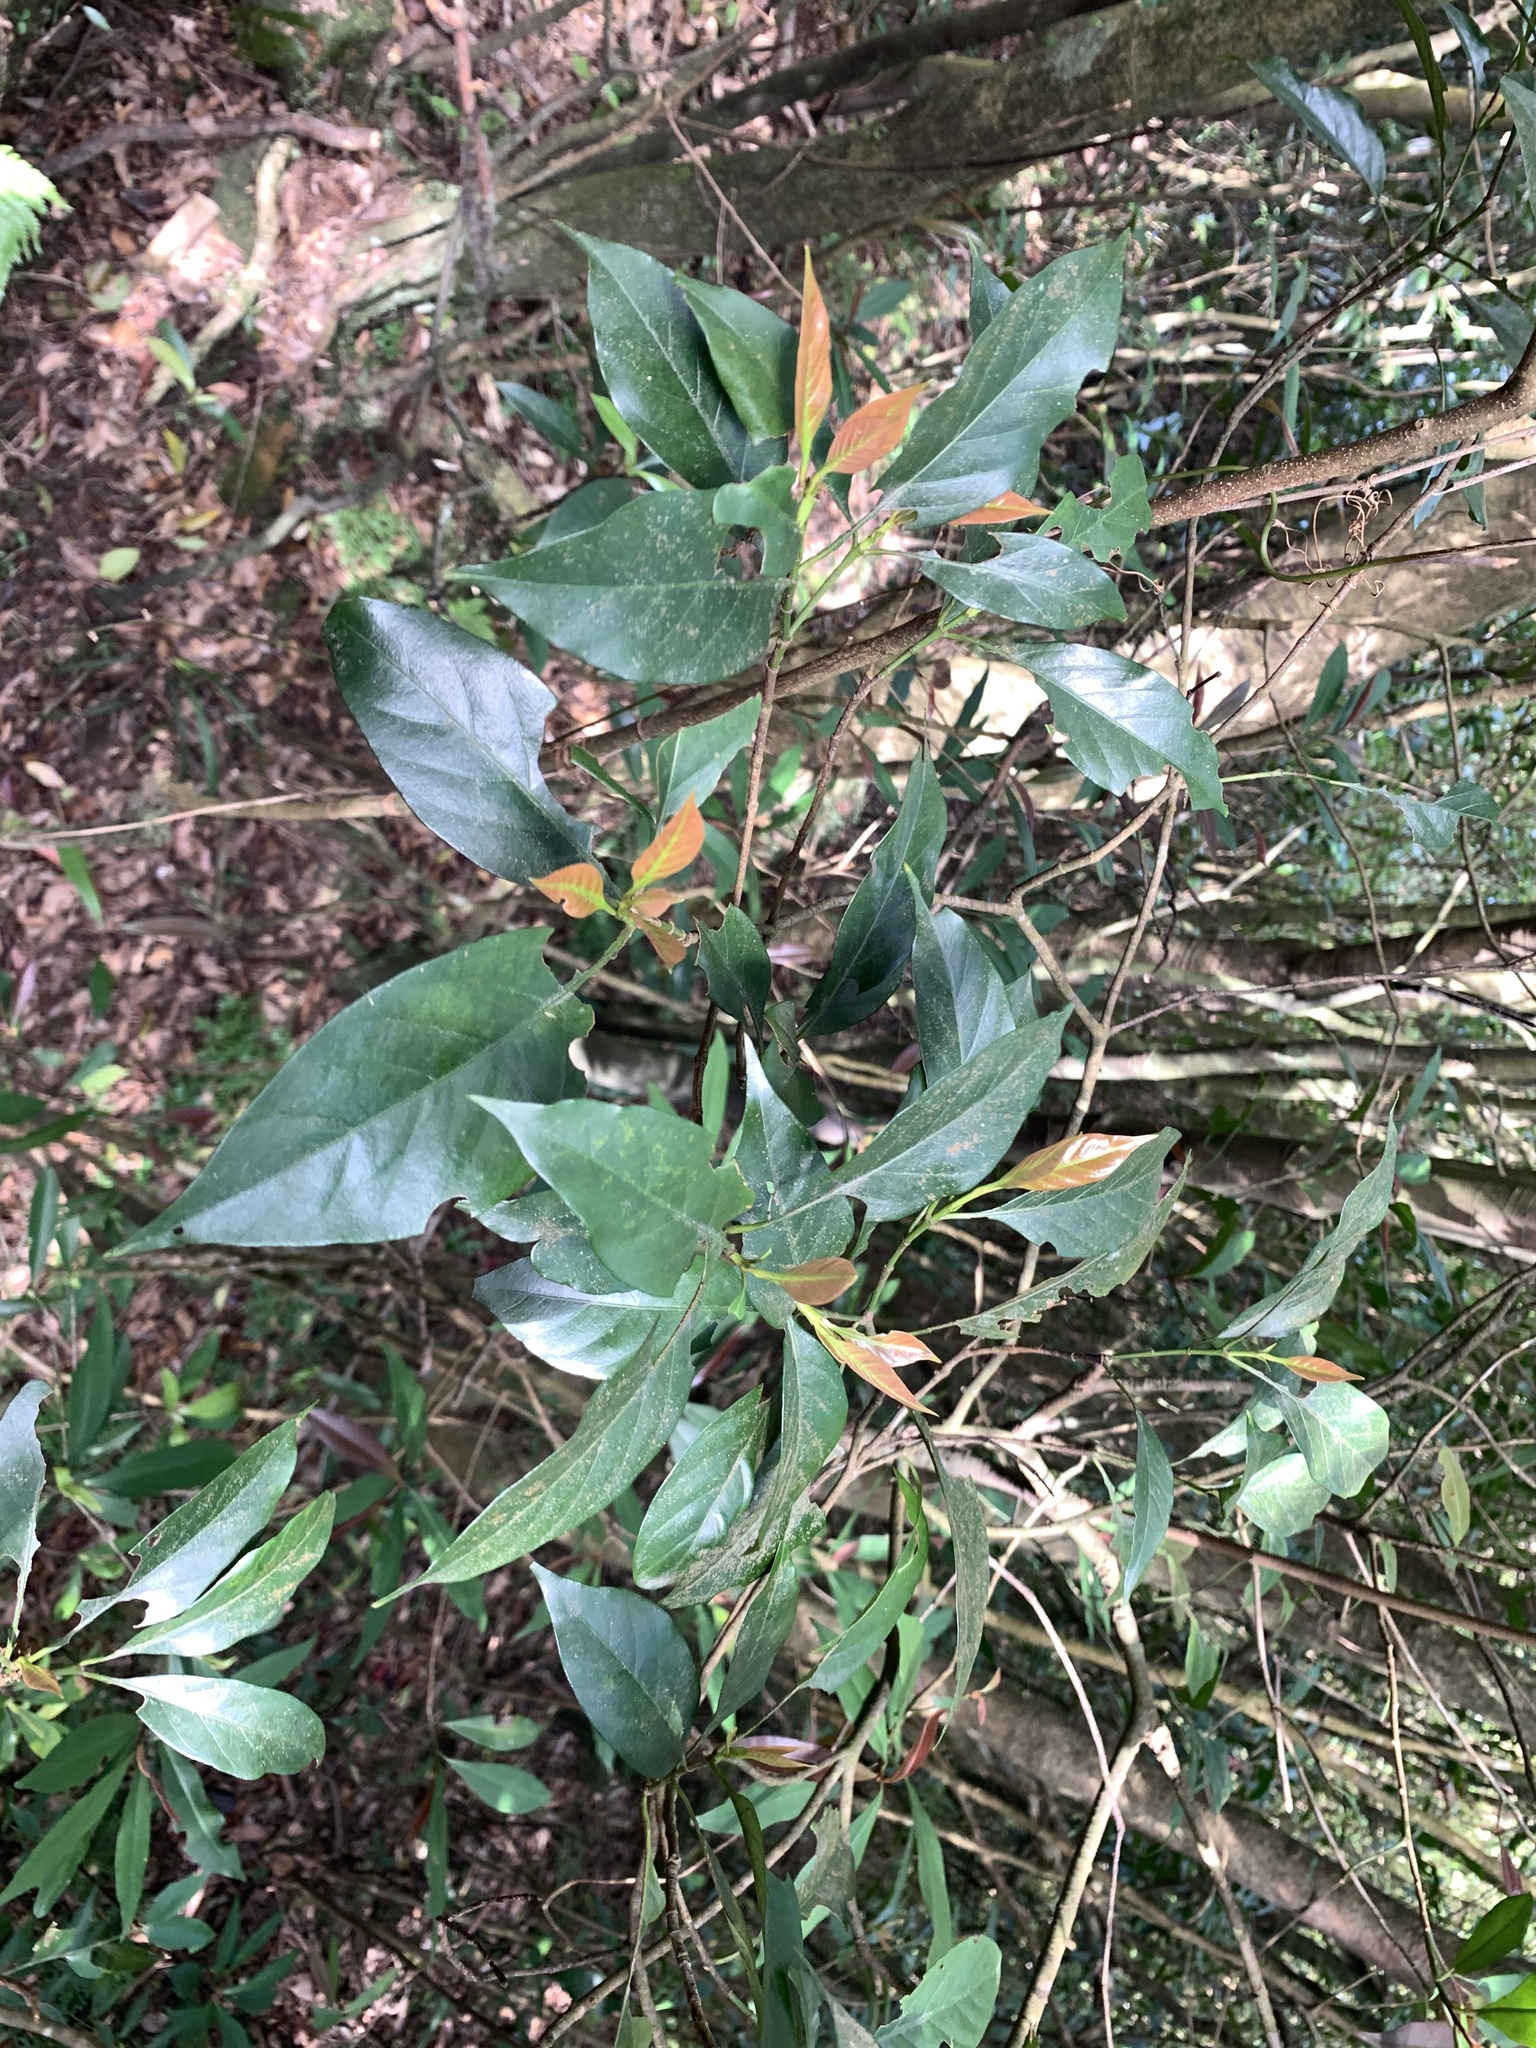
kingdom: Plantae
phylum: Tracheophyta
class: Magnoliopsida
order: Gentianales
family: Rubiaceae
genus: Aidia
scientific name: Aidia cochinchinensis
